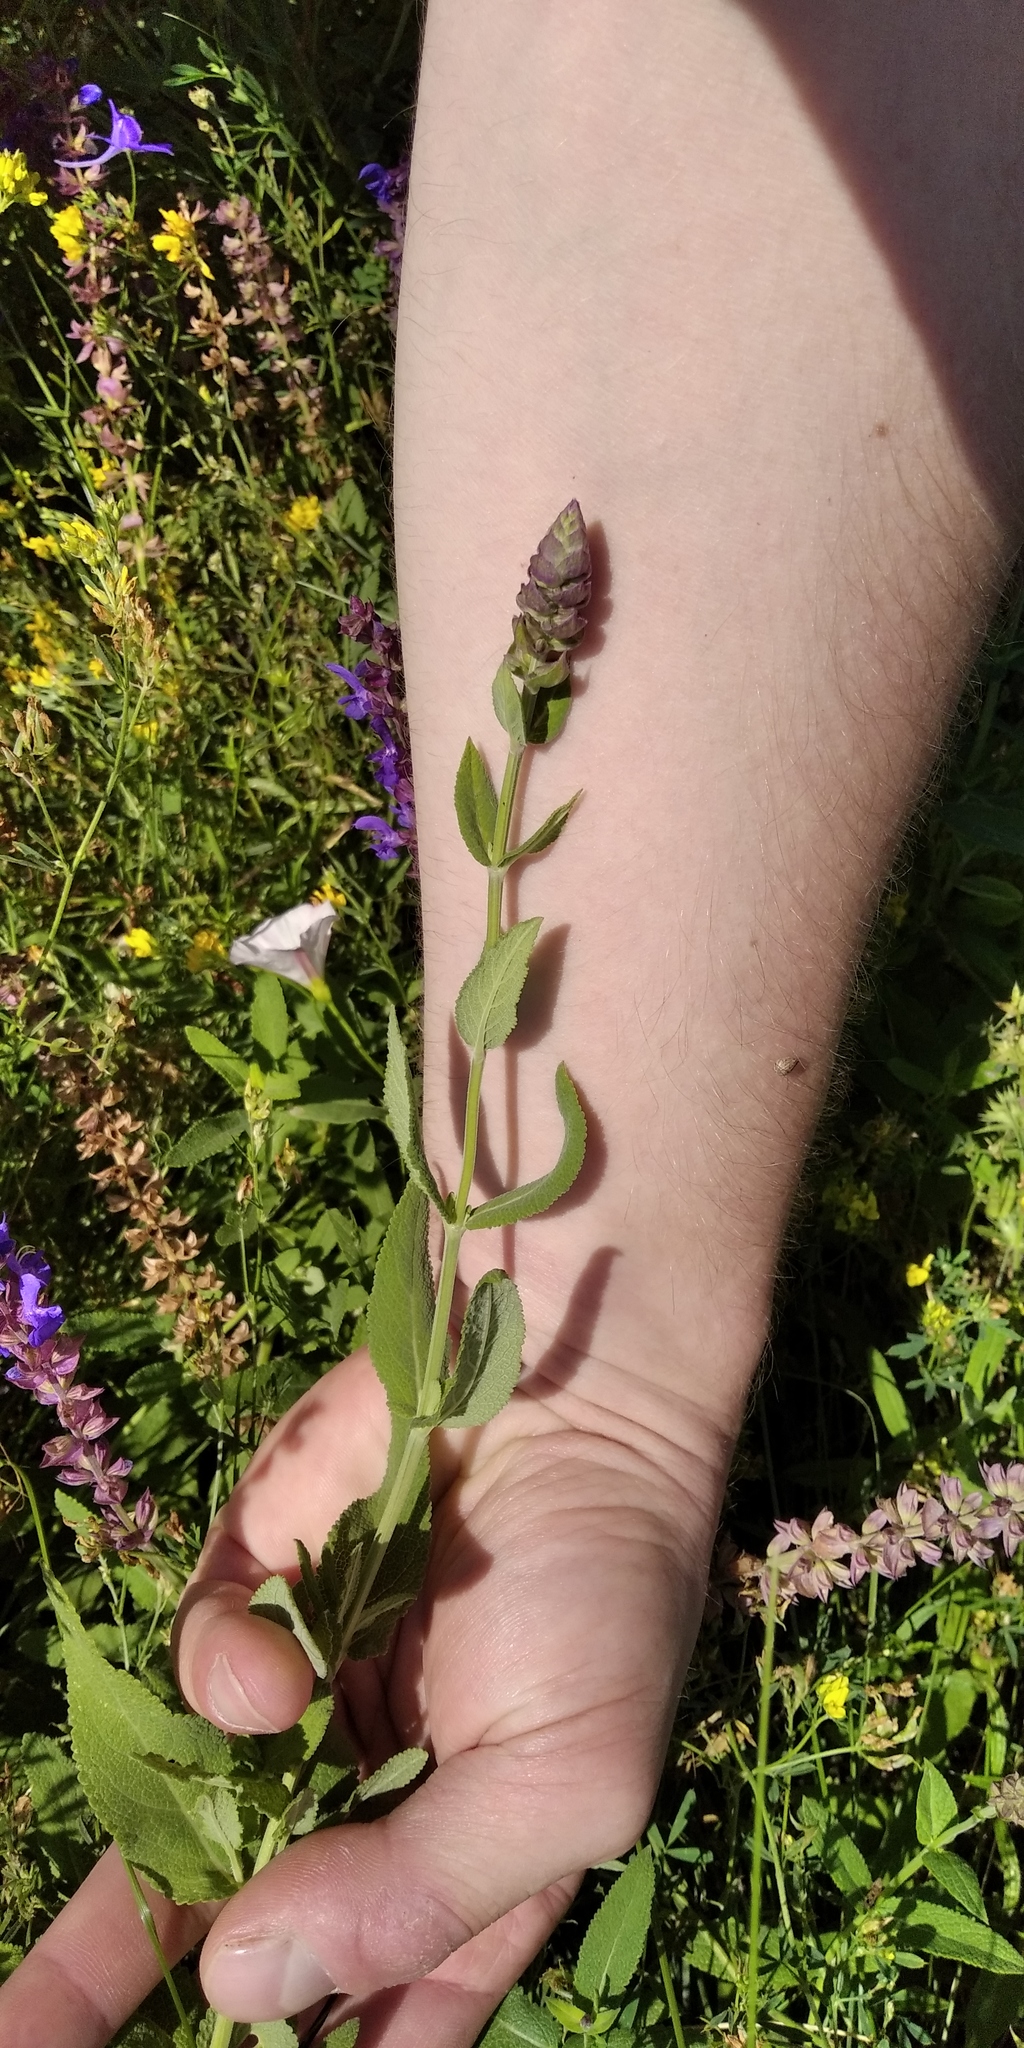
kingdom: Plantae
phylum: Tracheophyta
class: Magnoliopsida
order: Lamiales
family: Lamiaceae
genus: Salvia
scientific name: Salvia nemorosa
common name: Balkan clary
